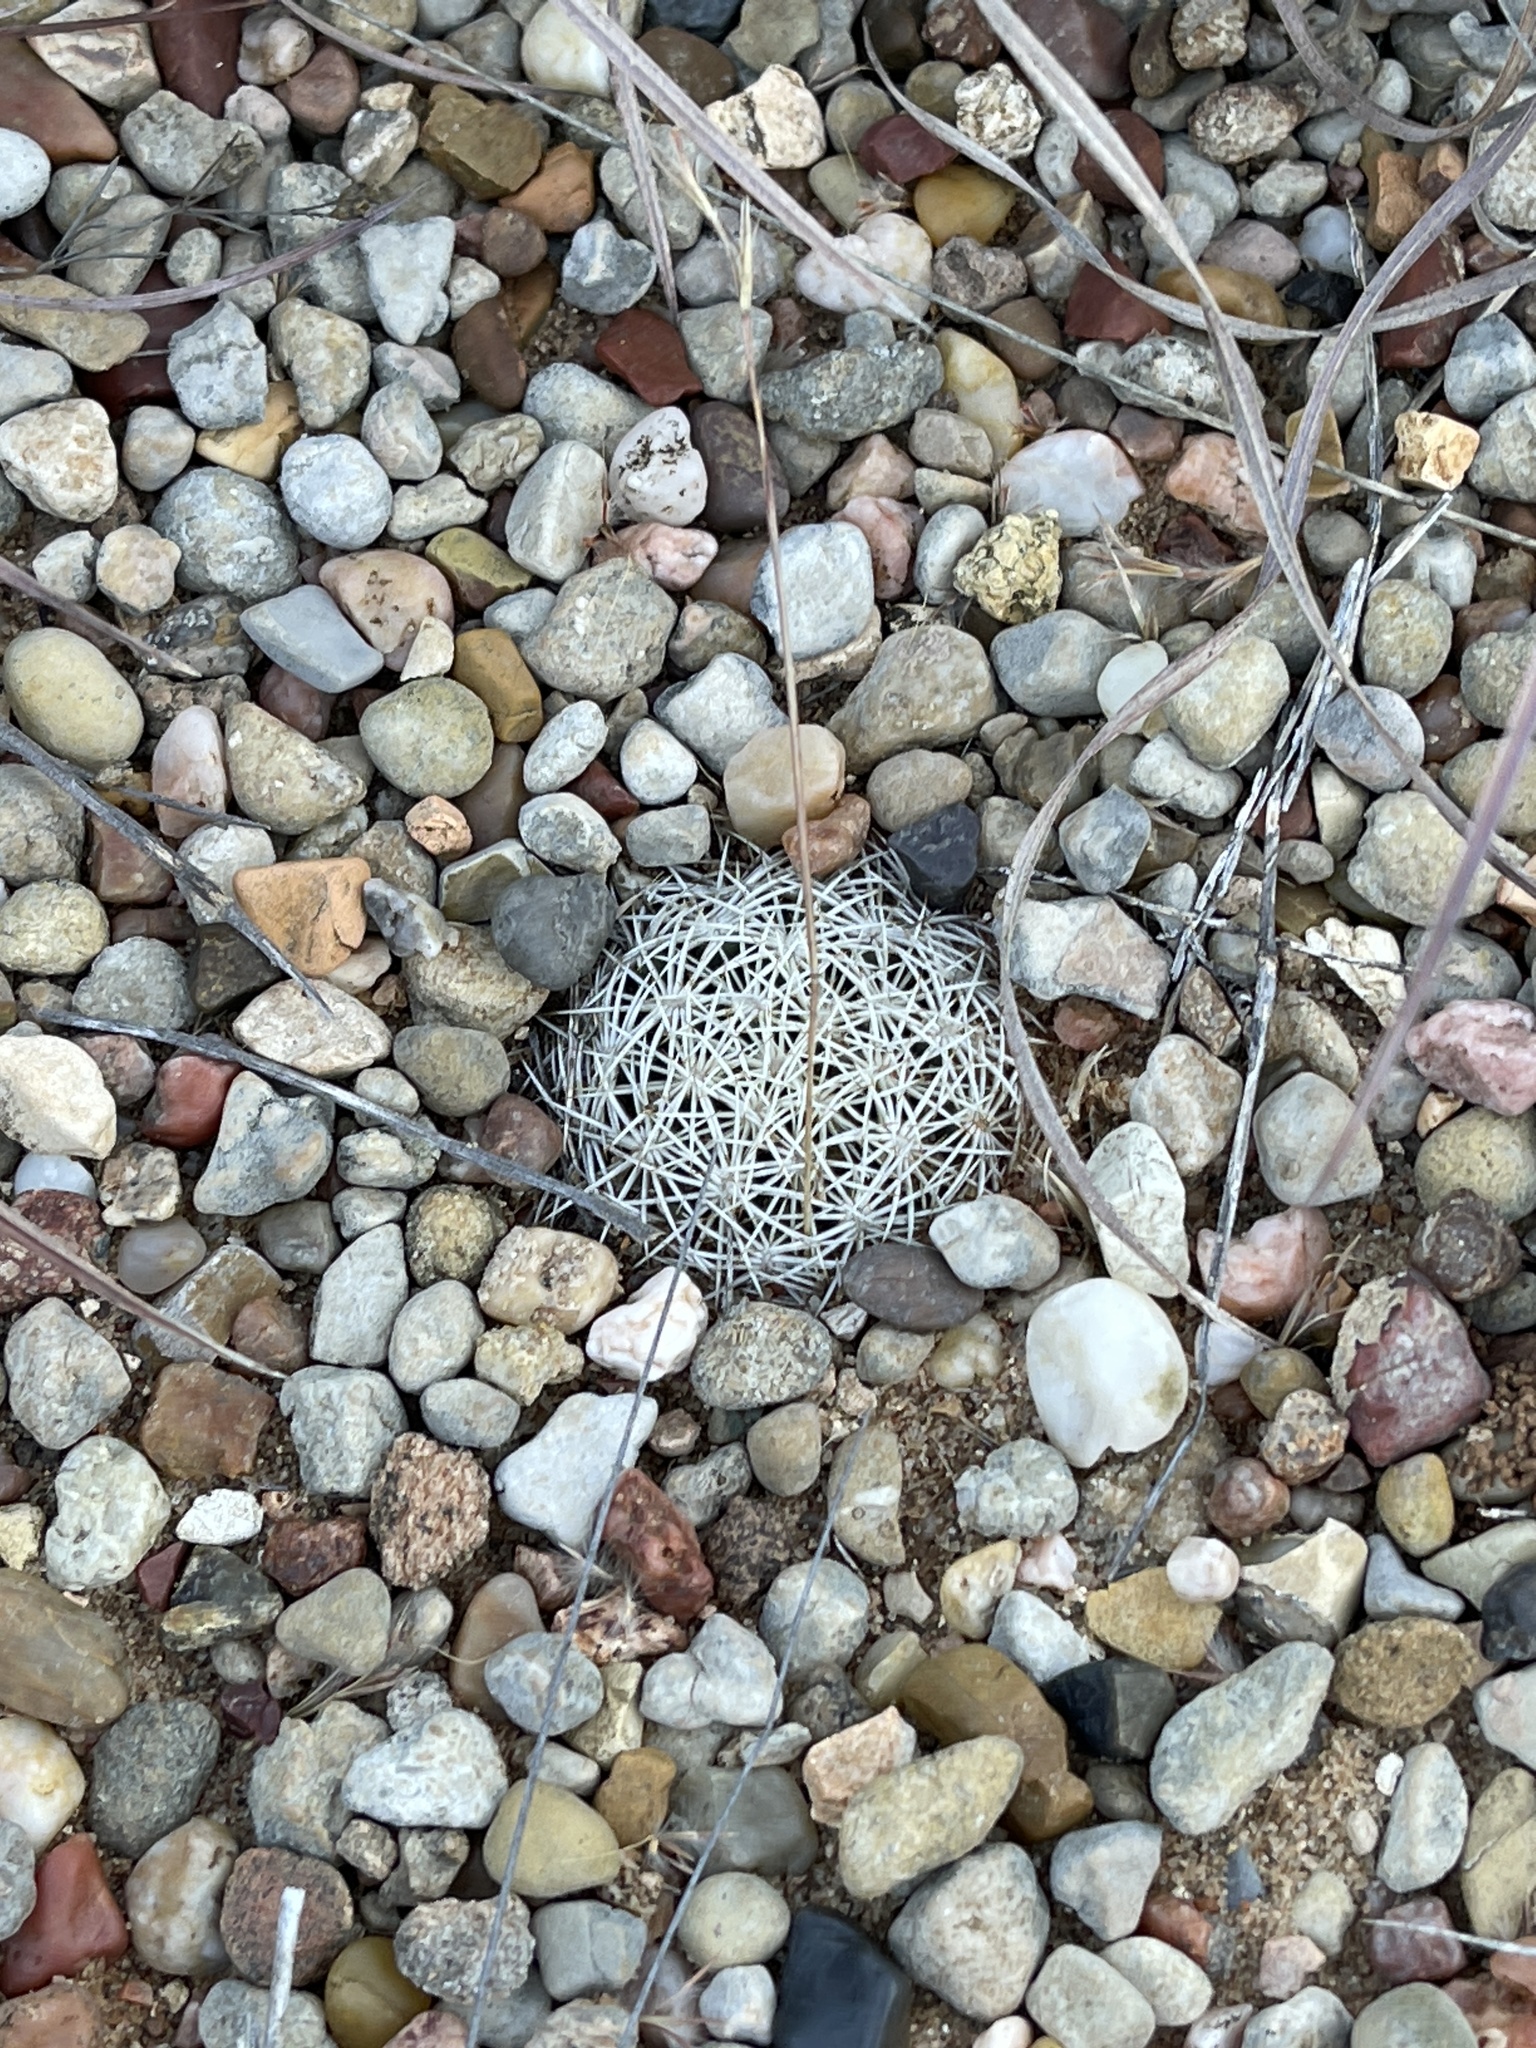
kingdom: Plantae
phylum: Tracheophyta
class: Magnoliopsida
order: Caryophyllales
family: Cactaceae
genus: Echinocereus
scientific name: Echinocereus reichenbachii
